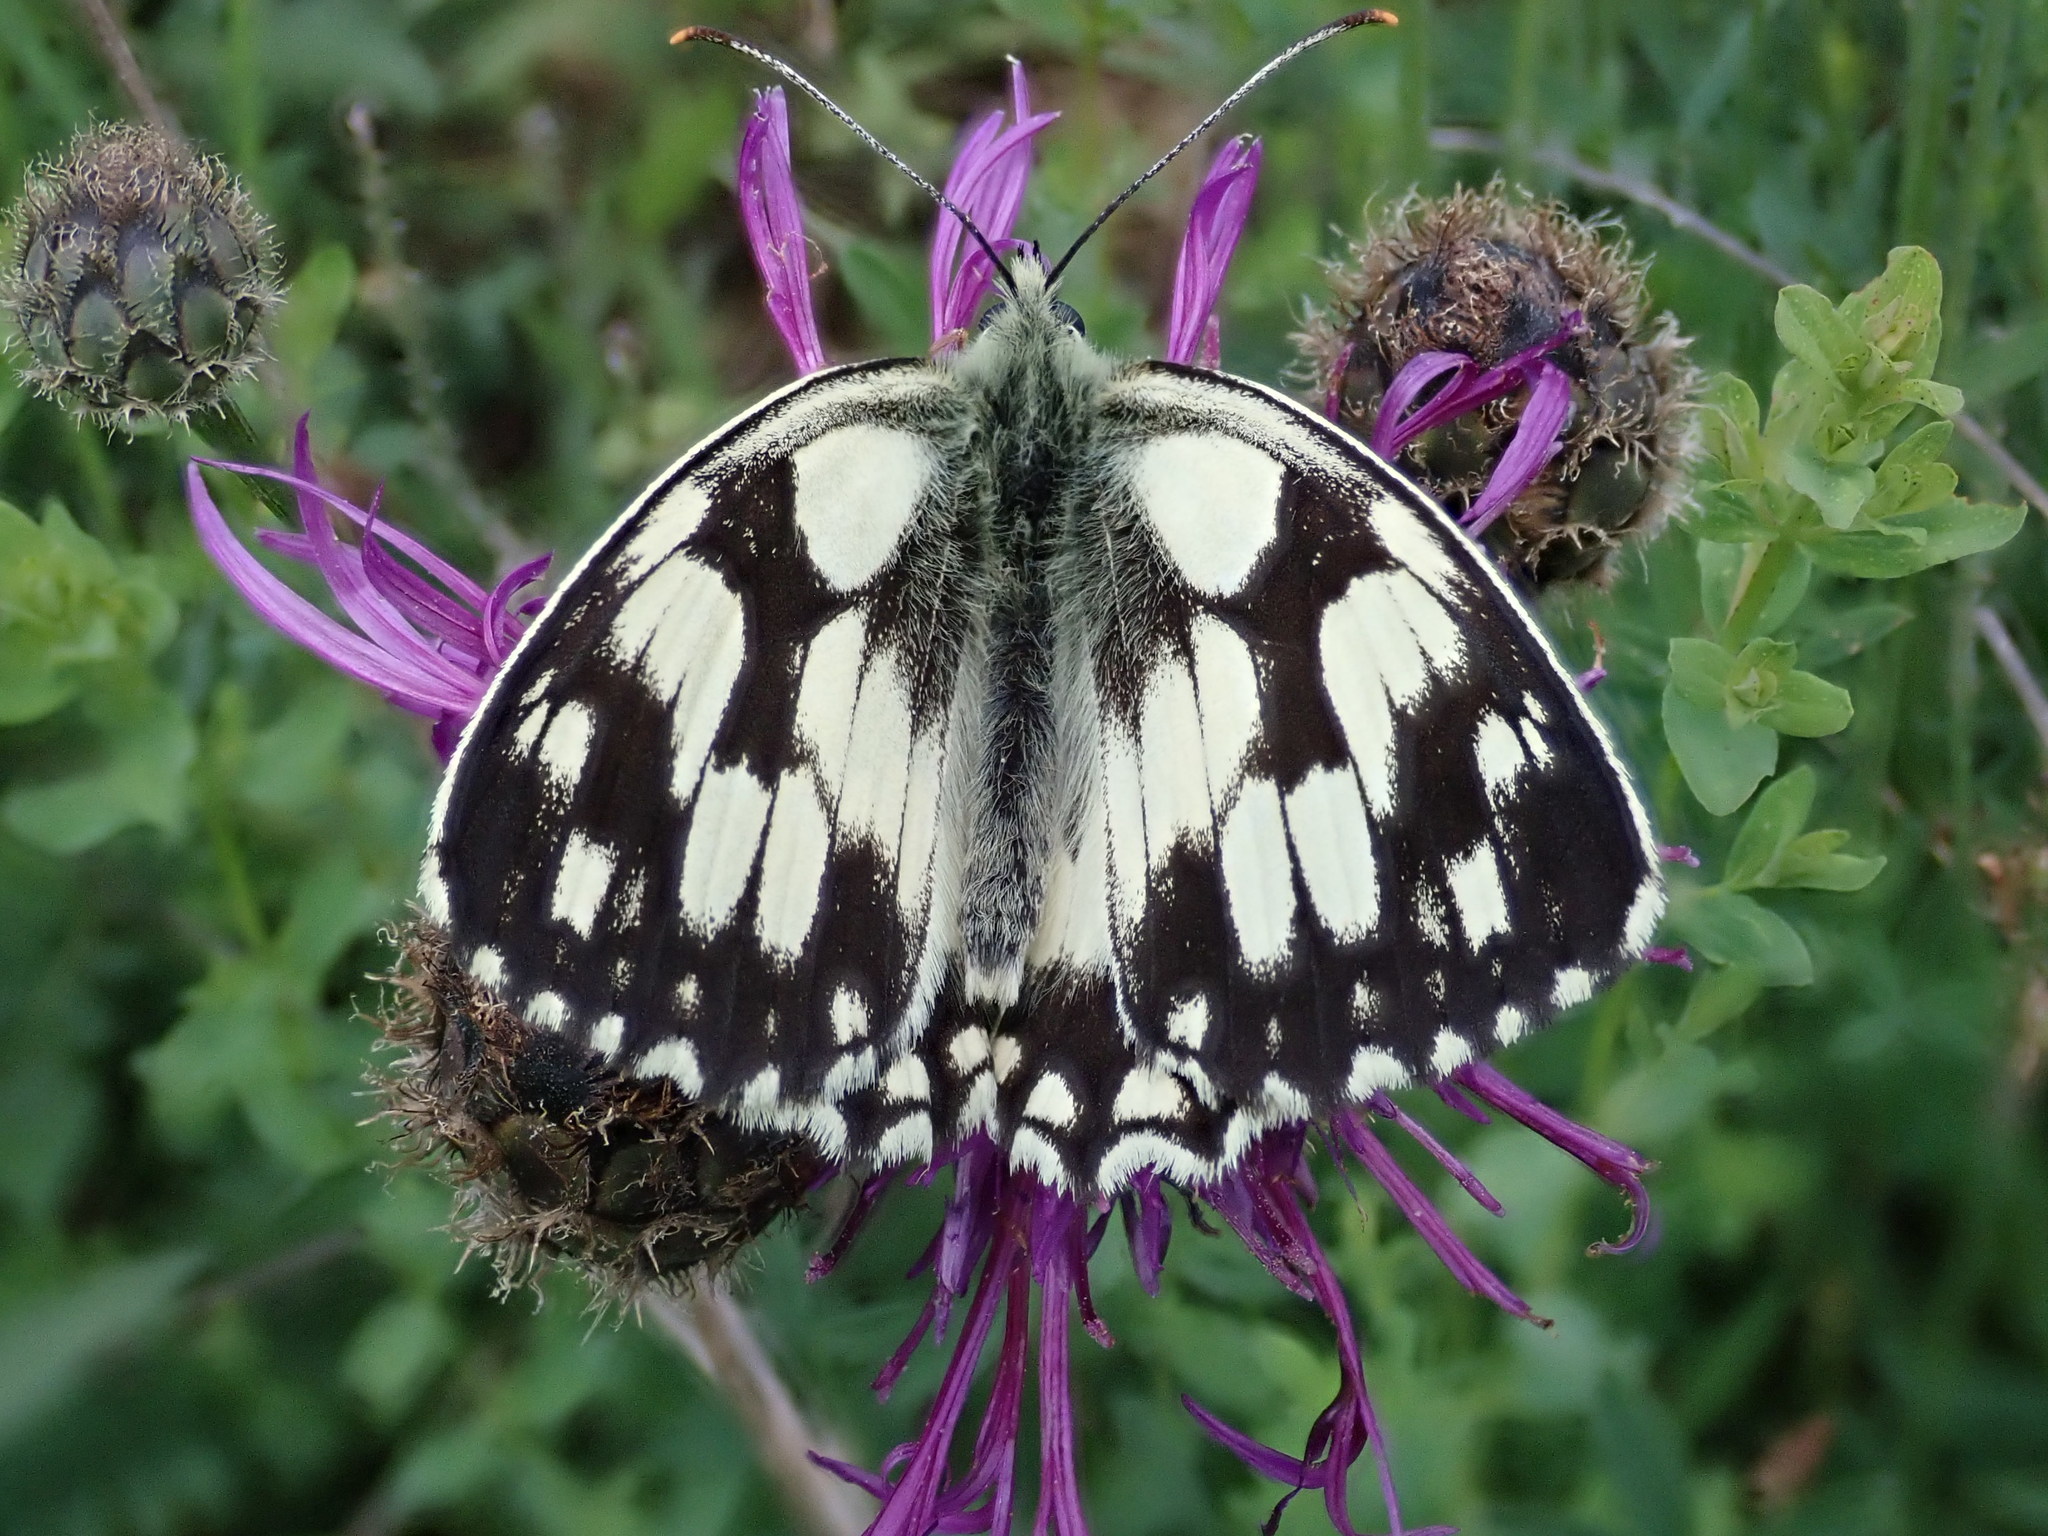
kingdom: Animalia
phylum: Arthropoda
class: Insecta
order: Lepidoptera
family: Nymphalidae
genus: Melanargia
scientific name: Melanargia galathea
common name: Marbled white
